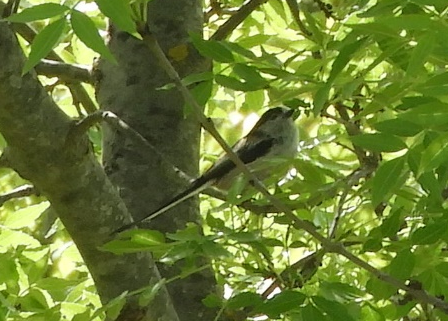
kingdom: Animalia
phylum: Chordata
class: Aves
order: Passeriformes
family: Aegithalidae
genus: Aegithalos
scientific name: Aegithalos caudatus
